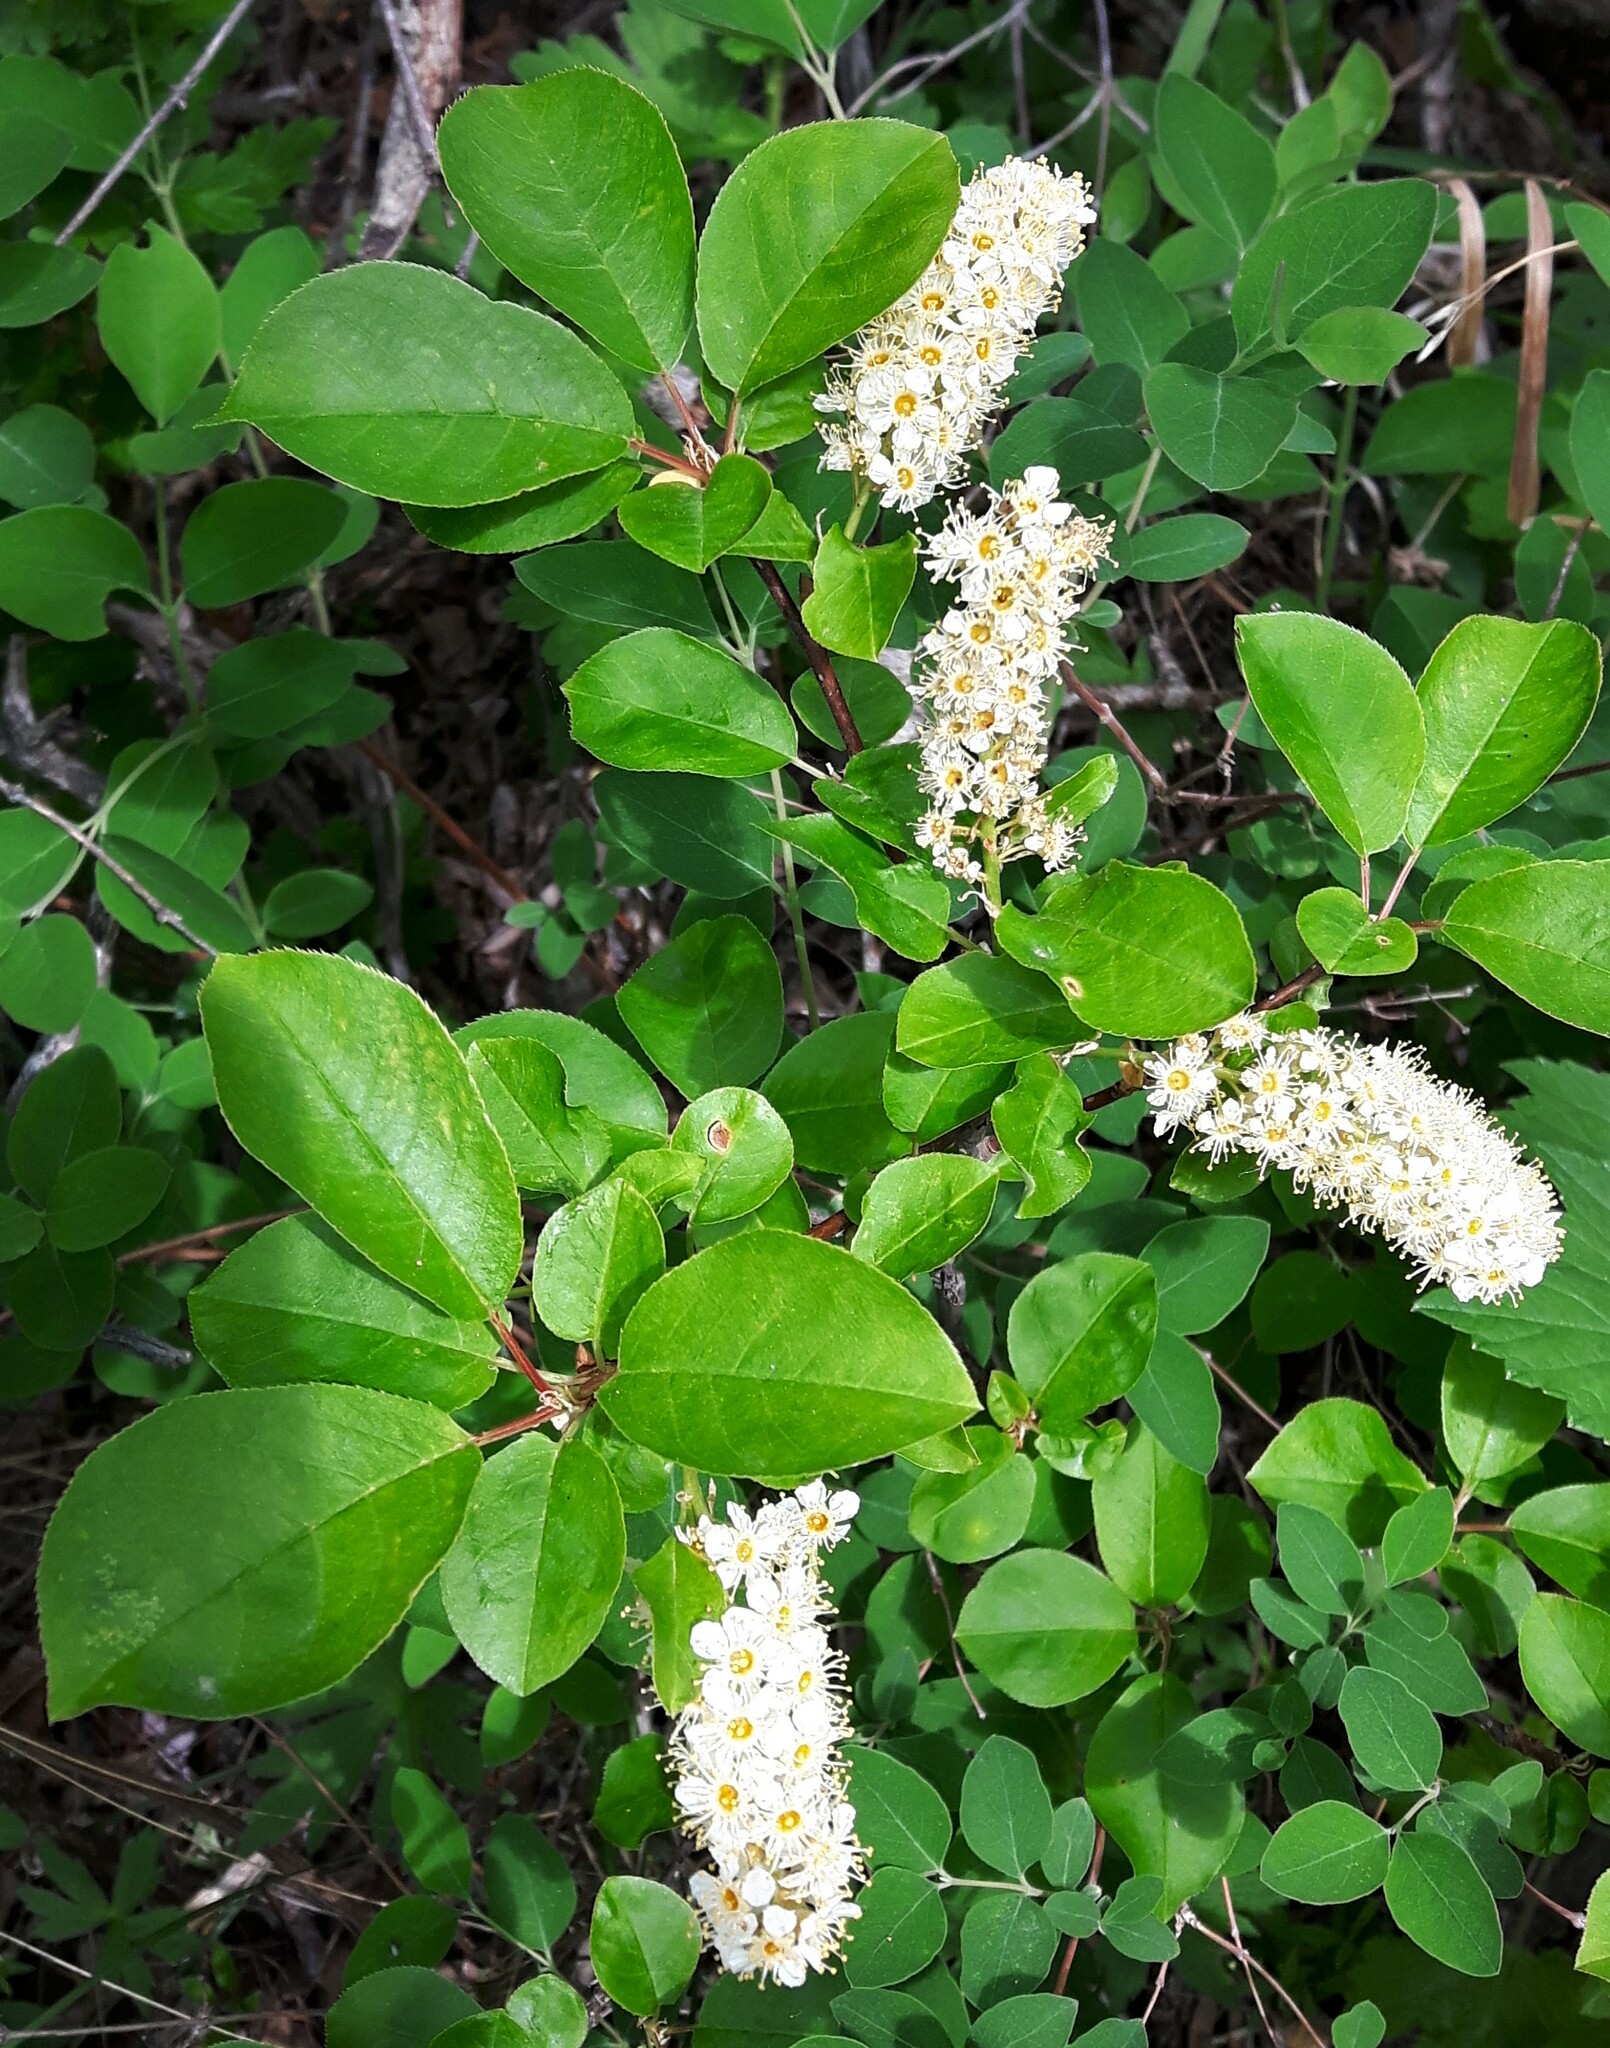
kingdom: Plantae
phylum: Tracheophyta
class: Magnoliopsida
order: Rosales
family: Rosaceae
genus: Prunus
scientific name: Prunus virginiana
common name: Chokecherry
